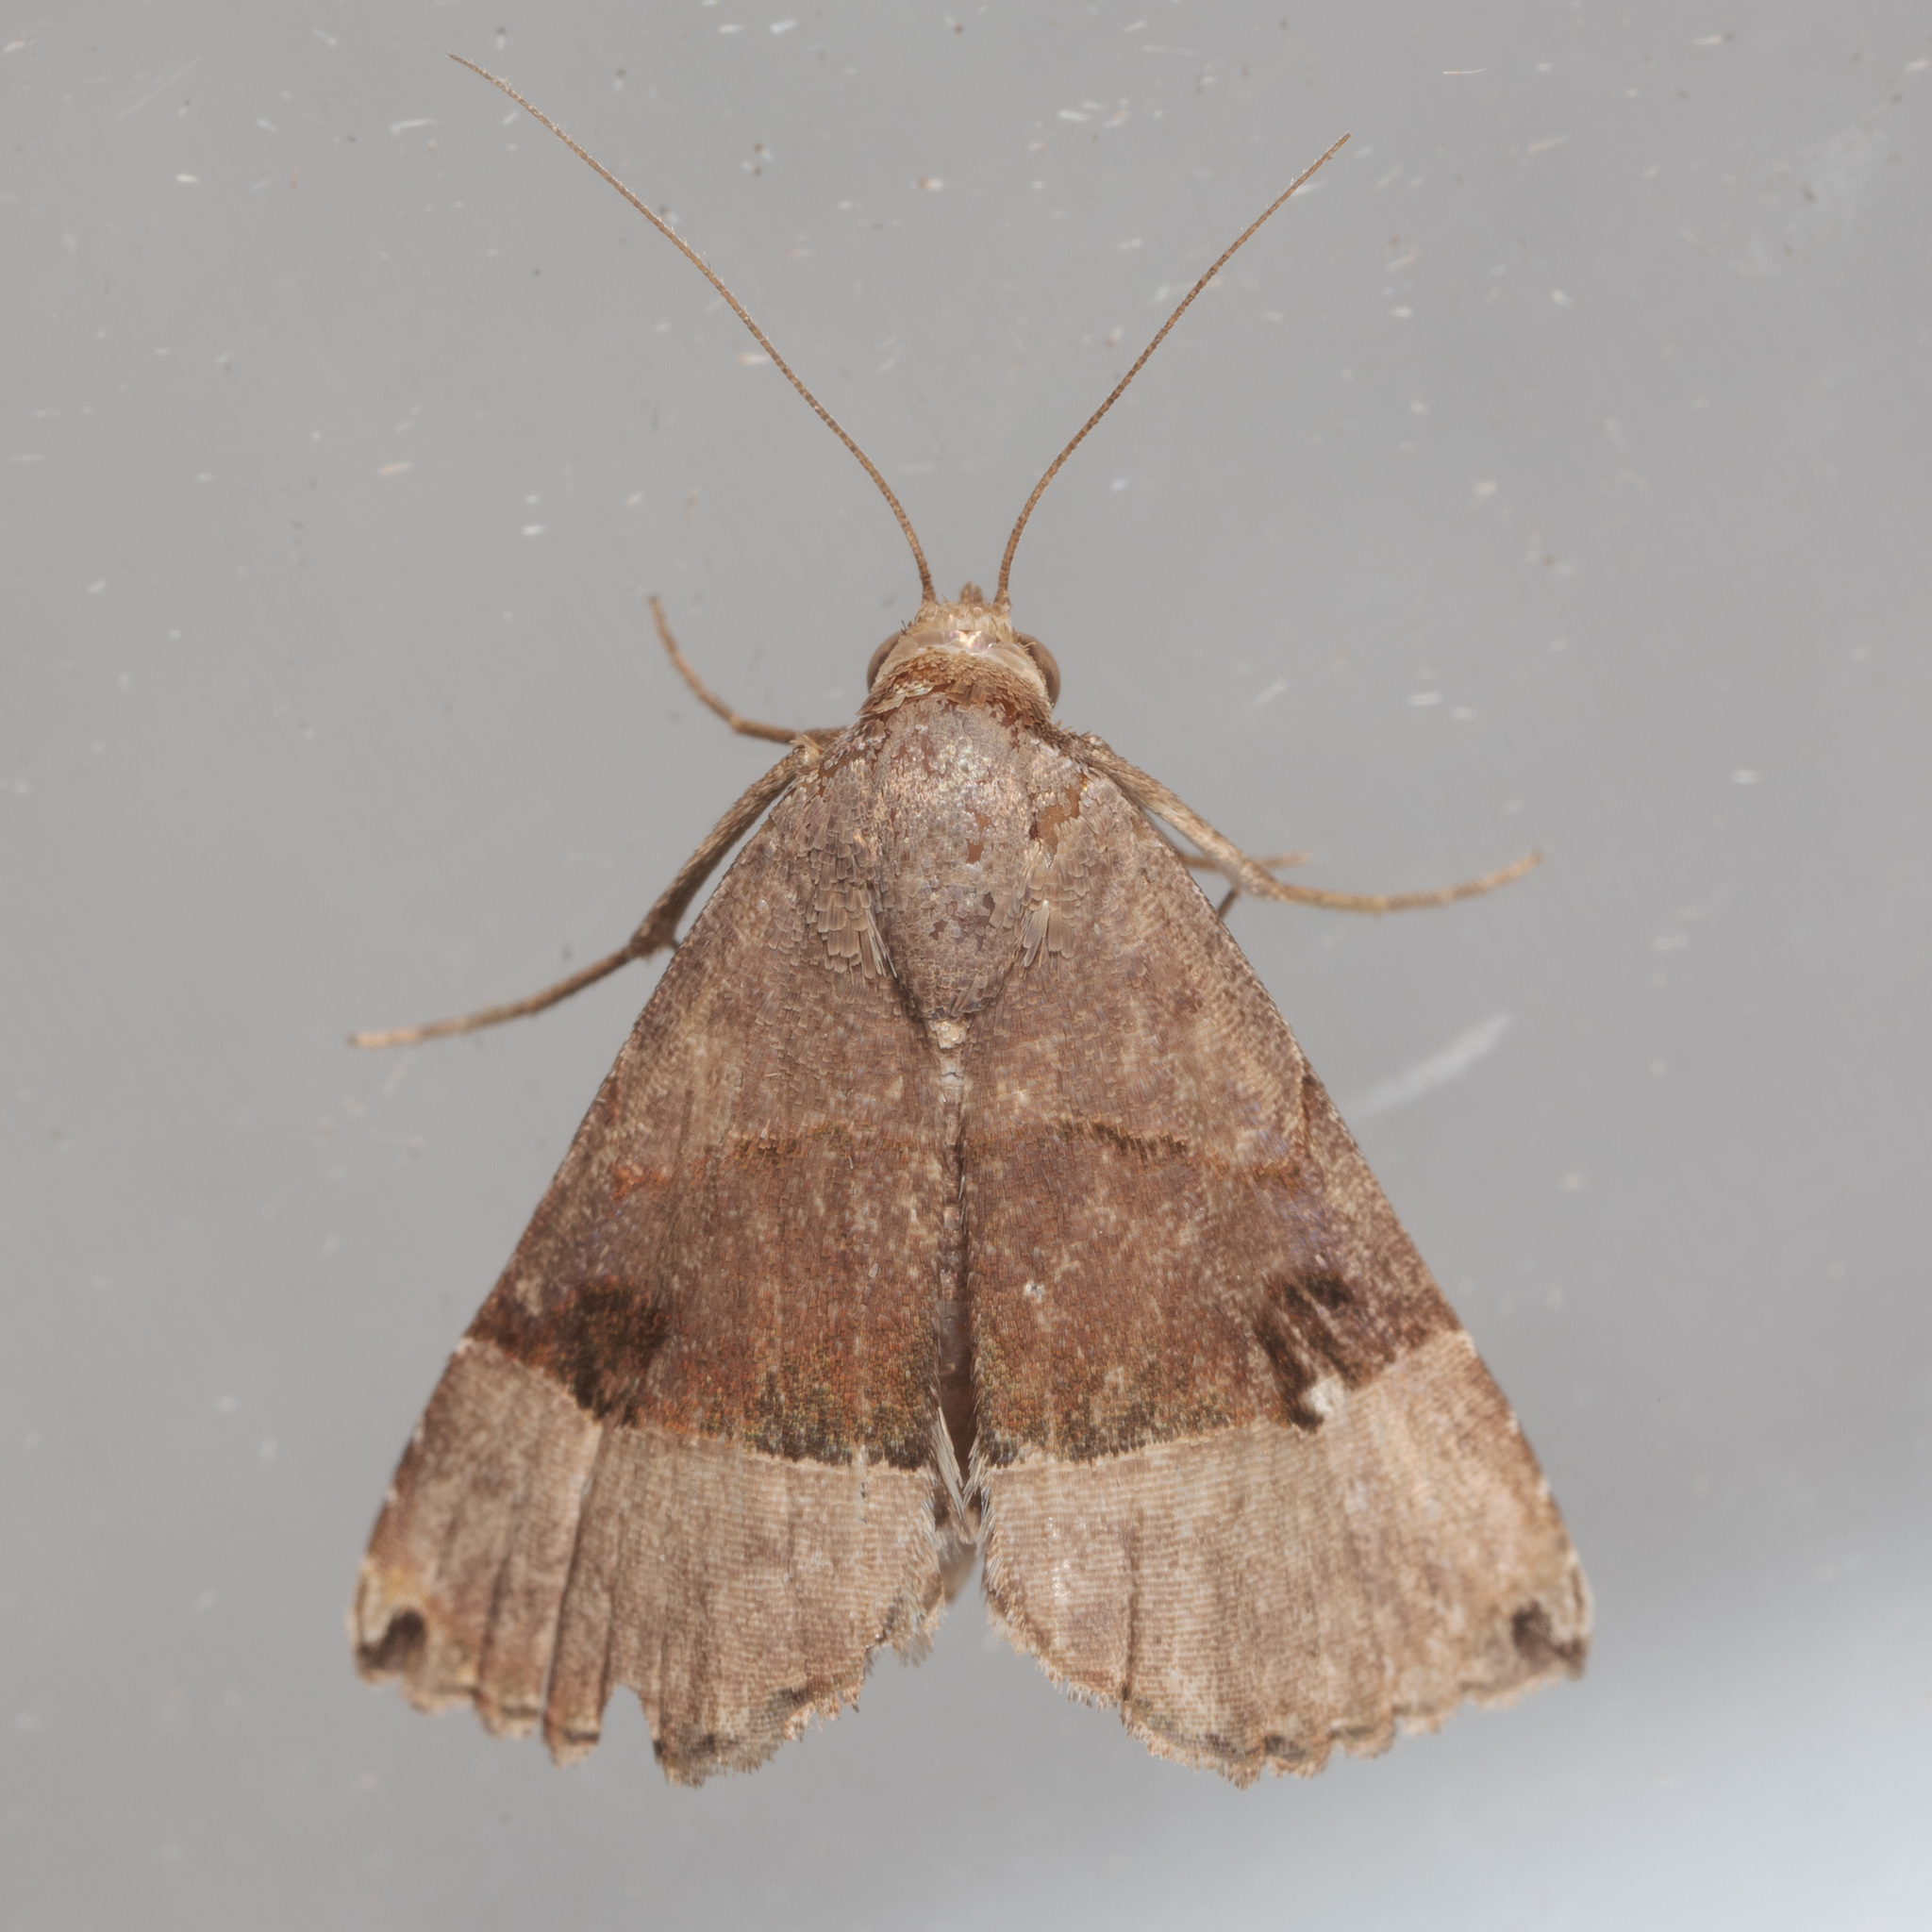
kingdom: Animalia
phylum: Arthropoda
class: Insecta
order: Lepidoptera
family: Noctuidae
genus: Abacena
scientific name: Abacena mundula
